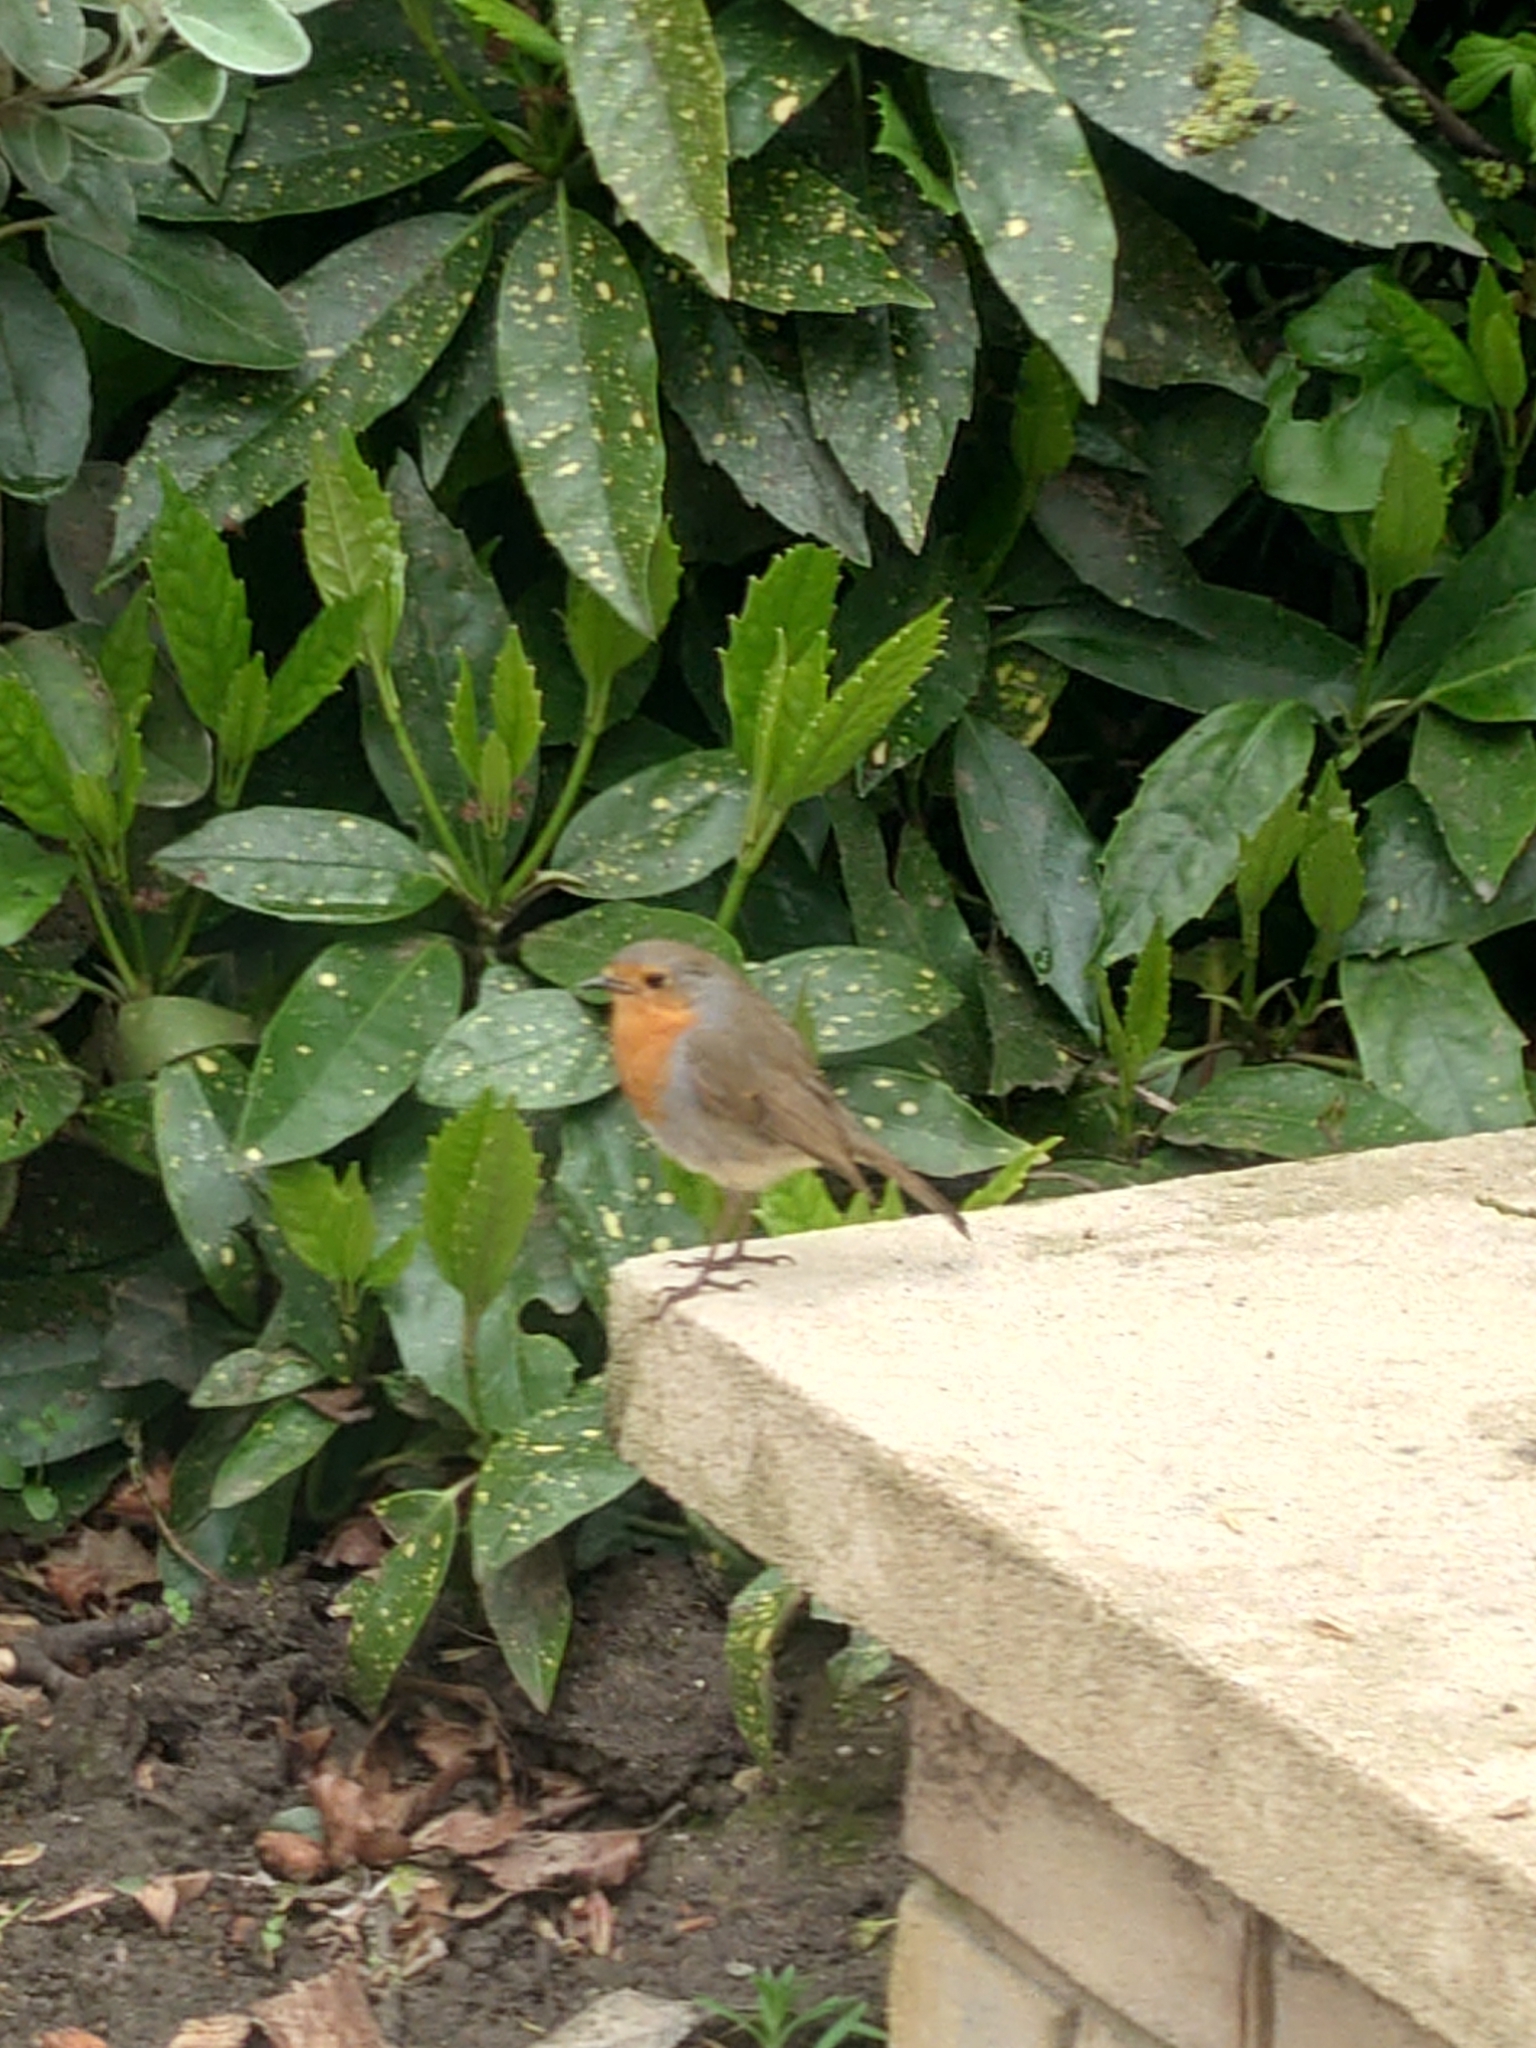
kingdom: Animalia
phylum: Chordata
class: Aves
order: Passeriformes
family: Muscicapidae
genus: Erithacus
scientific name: Erithacus rubecula
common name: European robin
